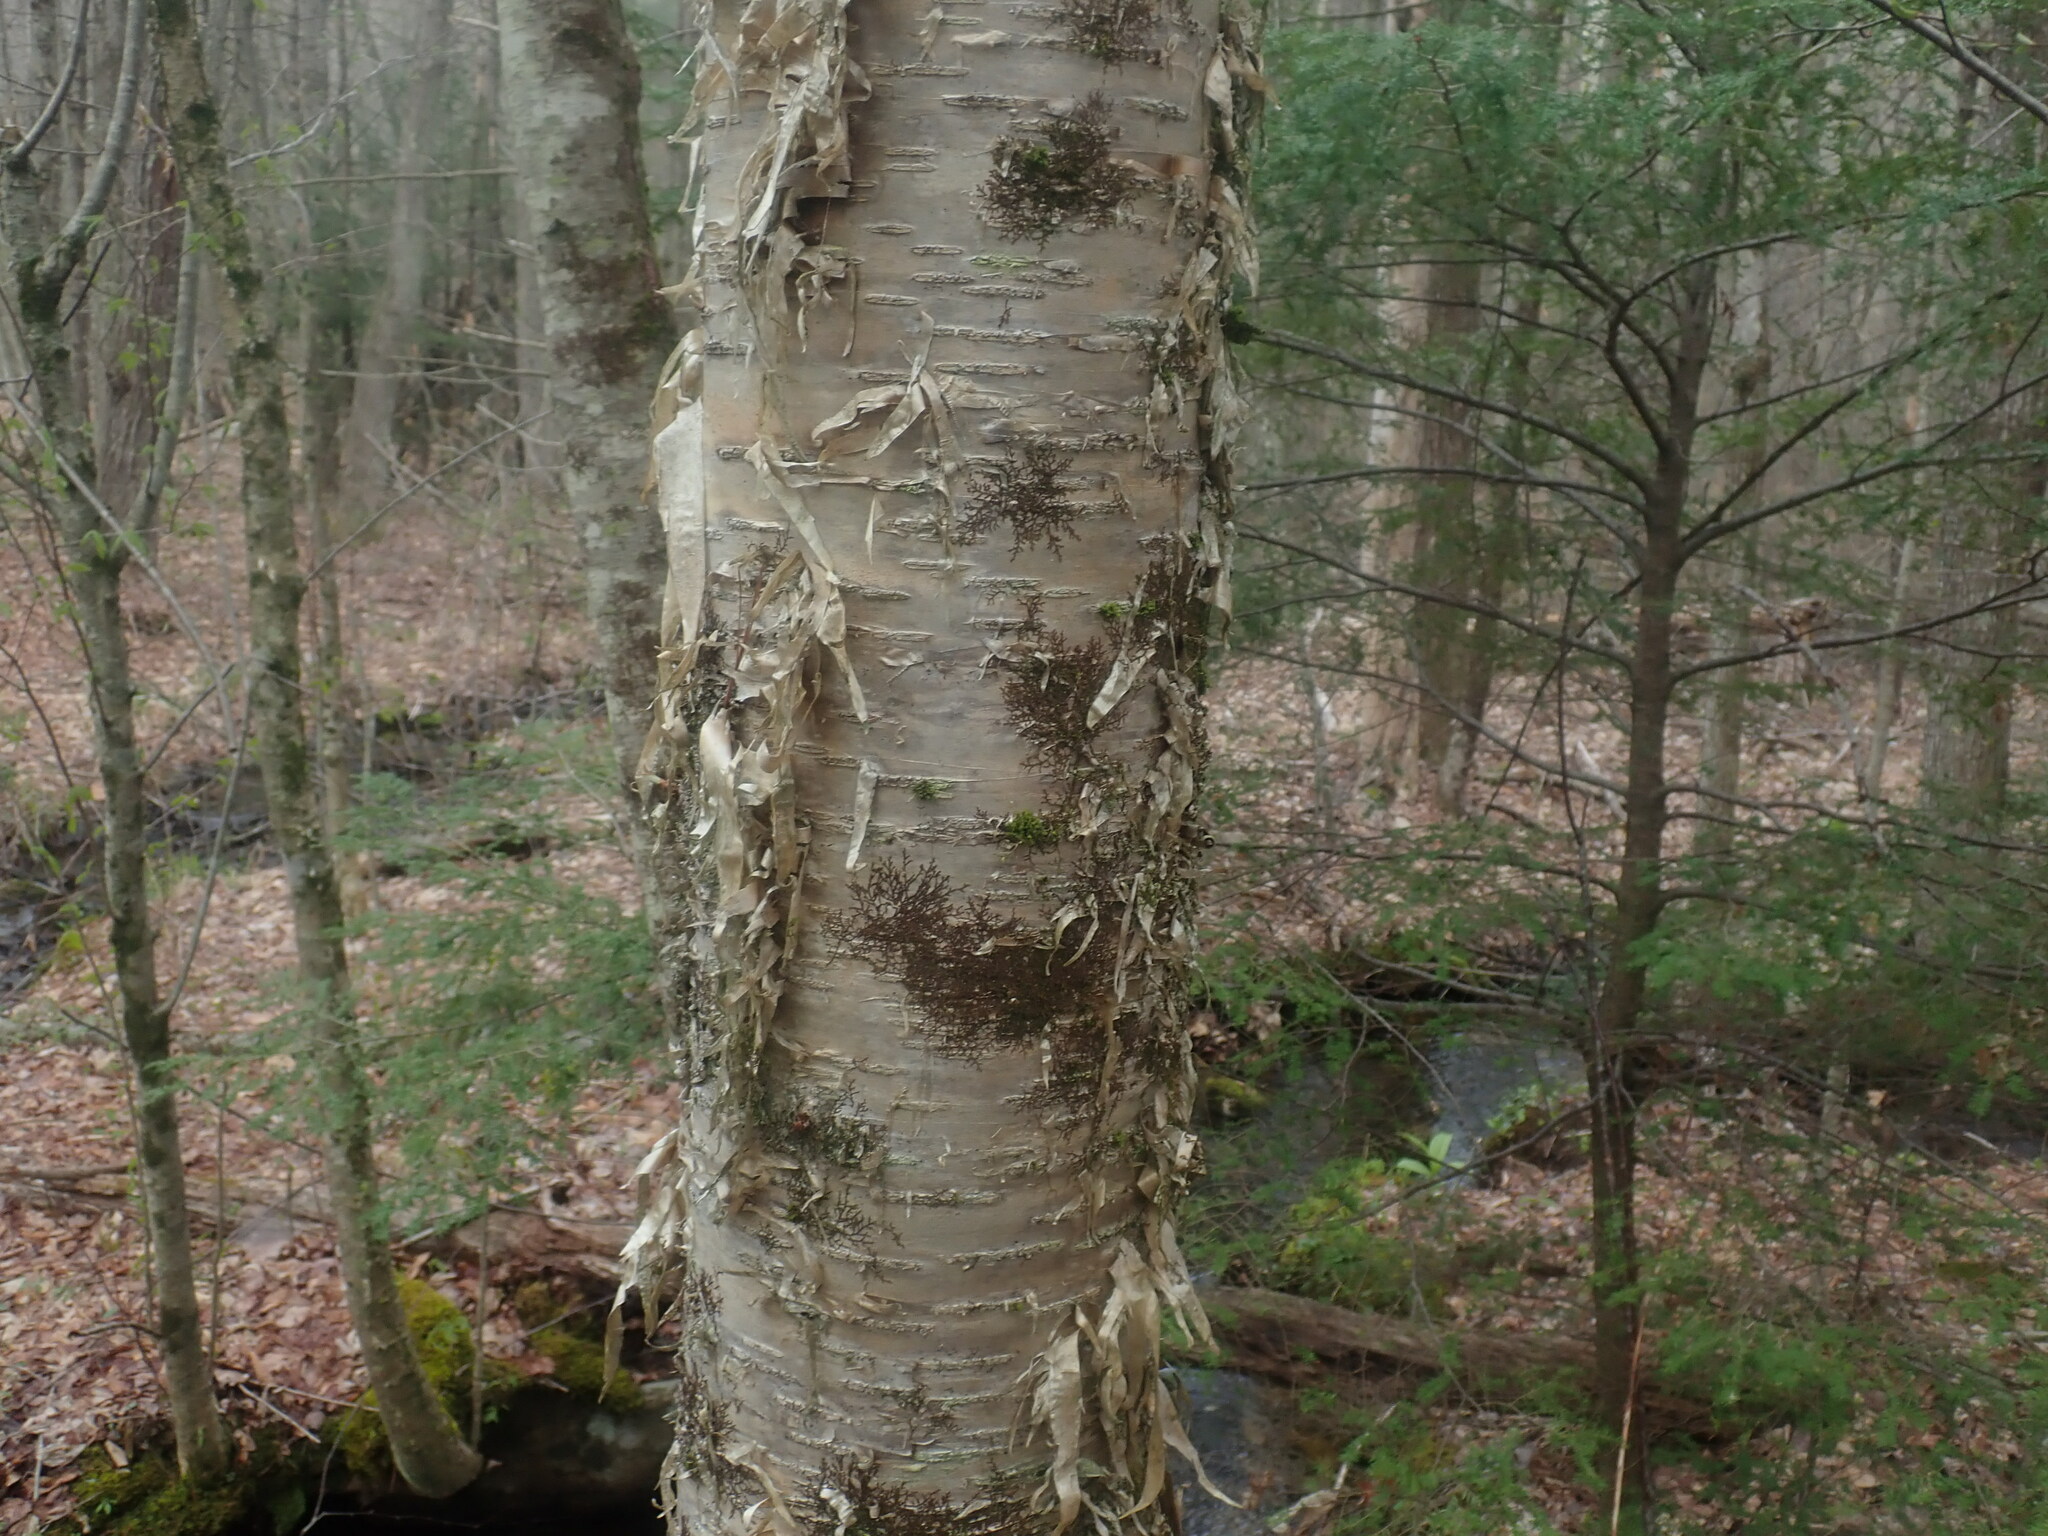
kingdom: Plantae
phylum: Tracheophyta
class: Magnoliopsida
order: Fagales
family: Betulaceae
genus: Betula
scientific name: Betula alleghaniensis
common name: Yellow birch
